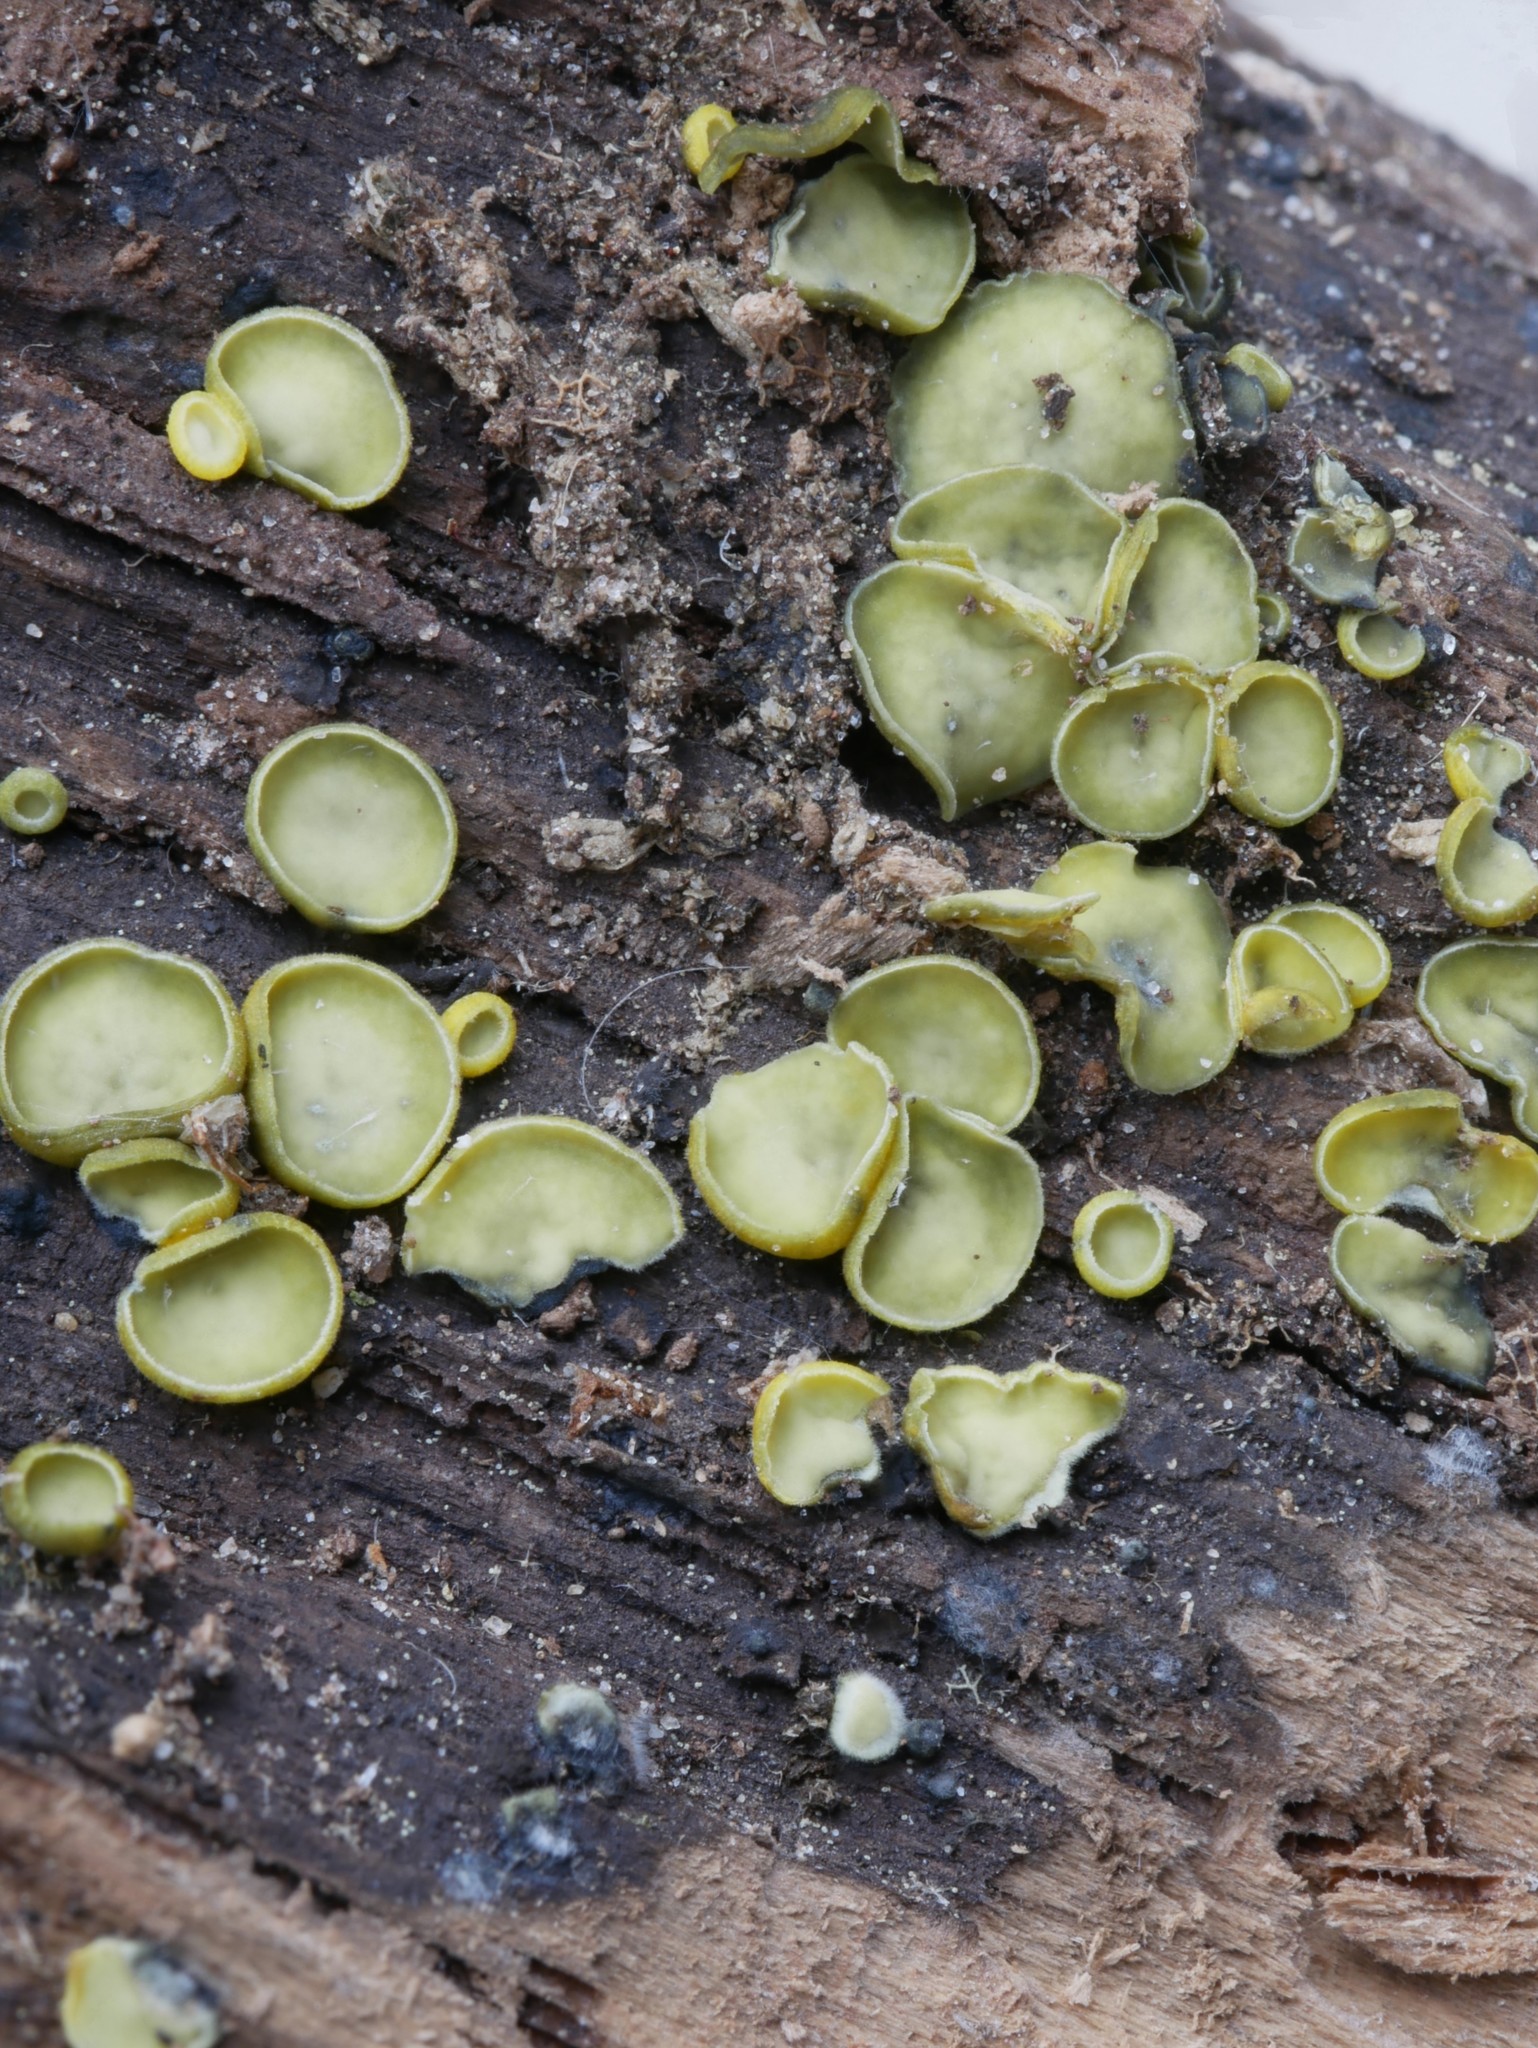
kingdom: Fungi
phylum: Ascomycota
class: Leotiomycetes
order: Helotiales
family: Chlorospleniaceae
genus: Chlorosplenium
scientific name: Chlorosplenium chlora
